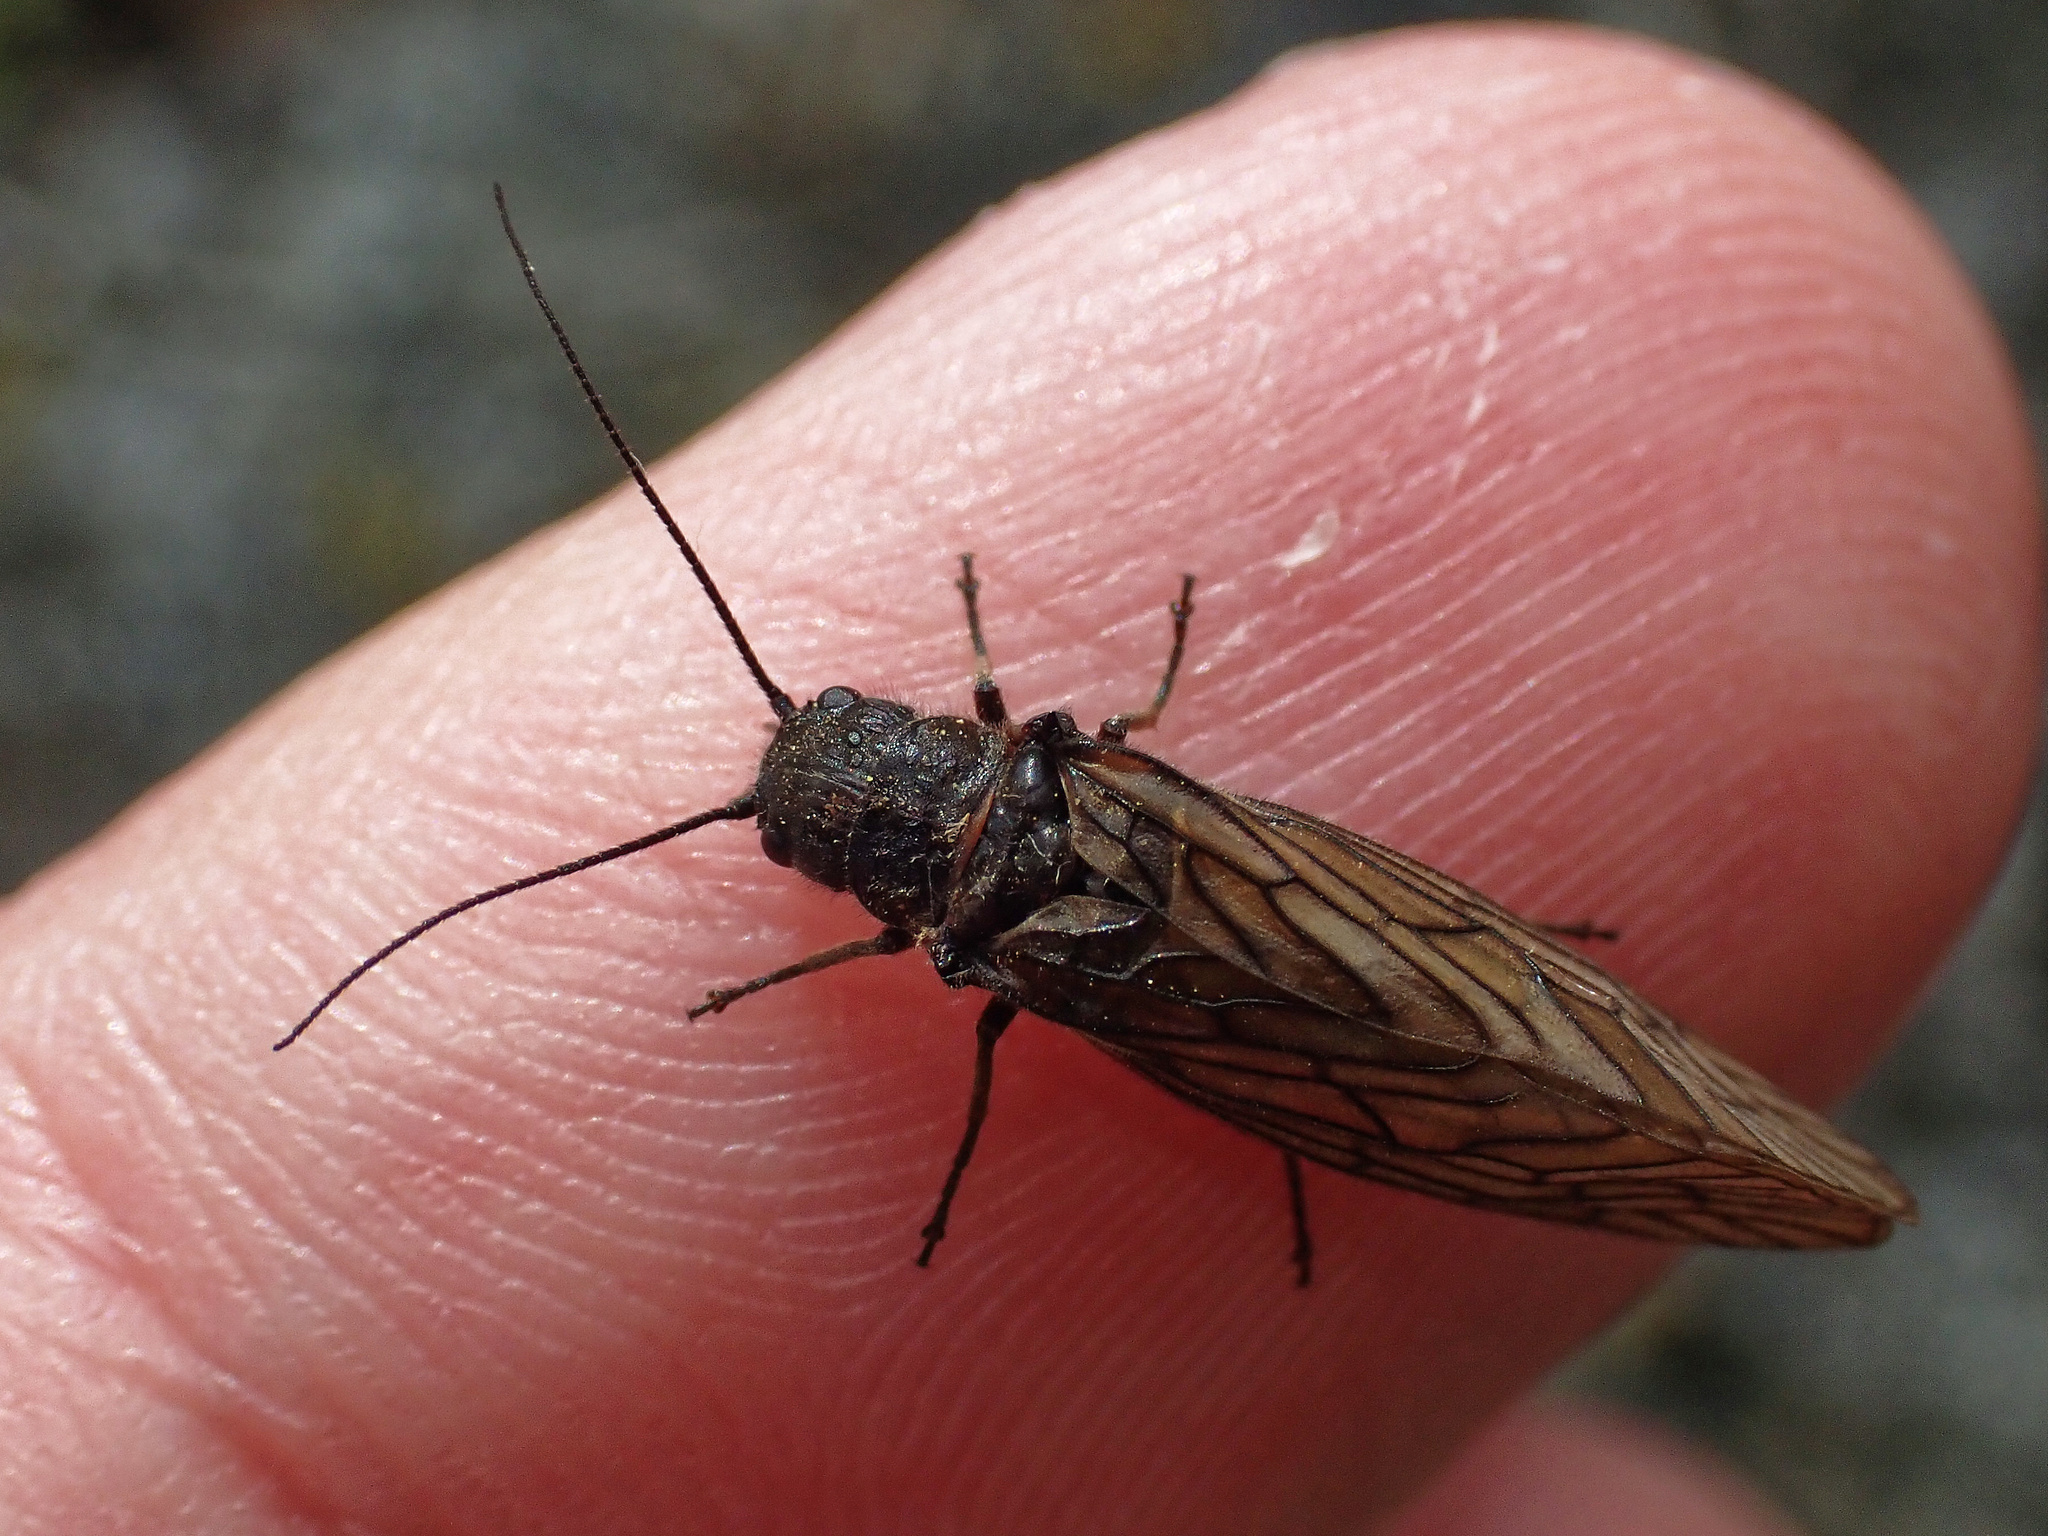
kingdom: Animalia
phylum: Arthropoda
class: Insecta
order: Megaloptera
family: Sialidae
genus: Sialis
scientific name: Sialis
